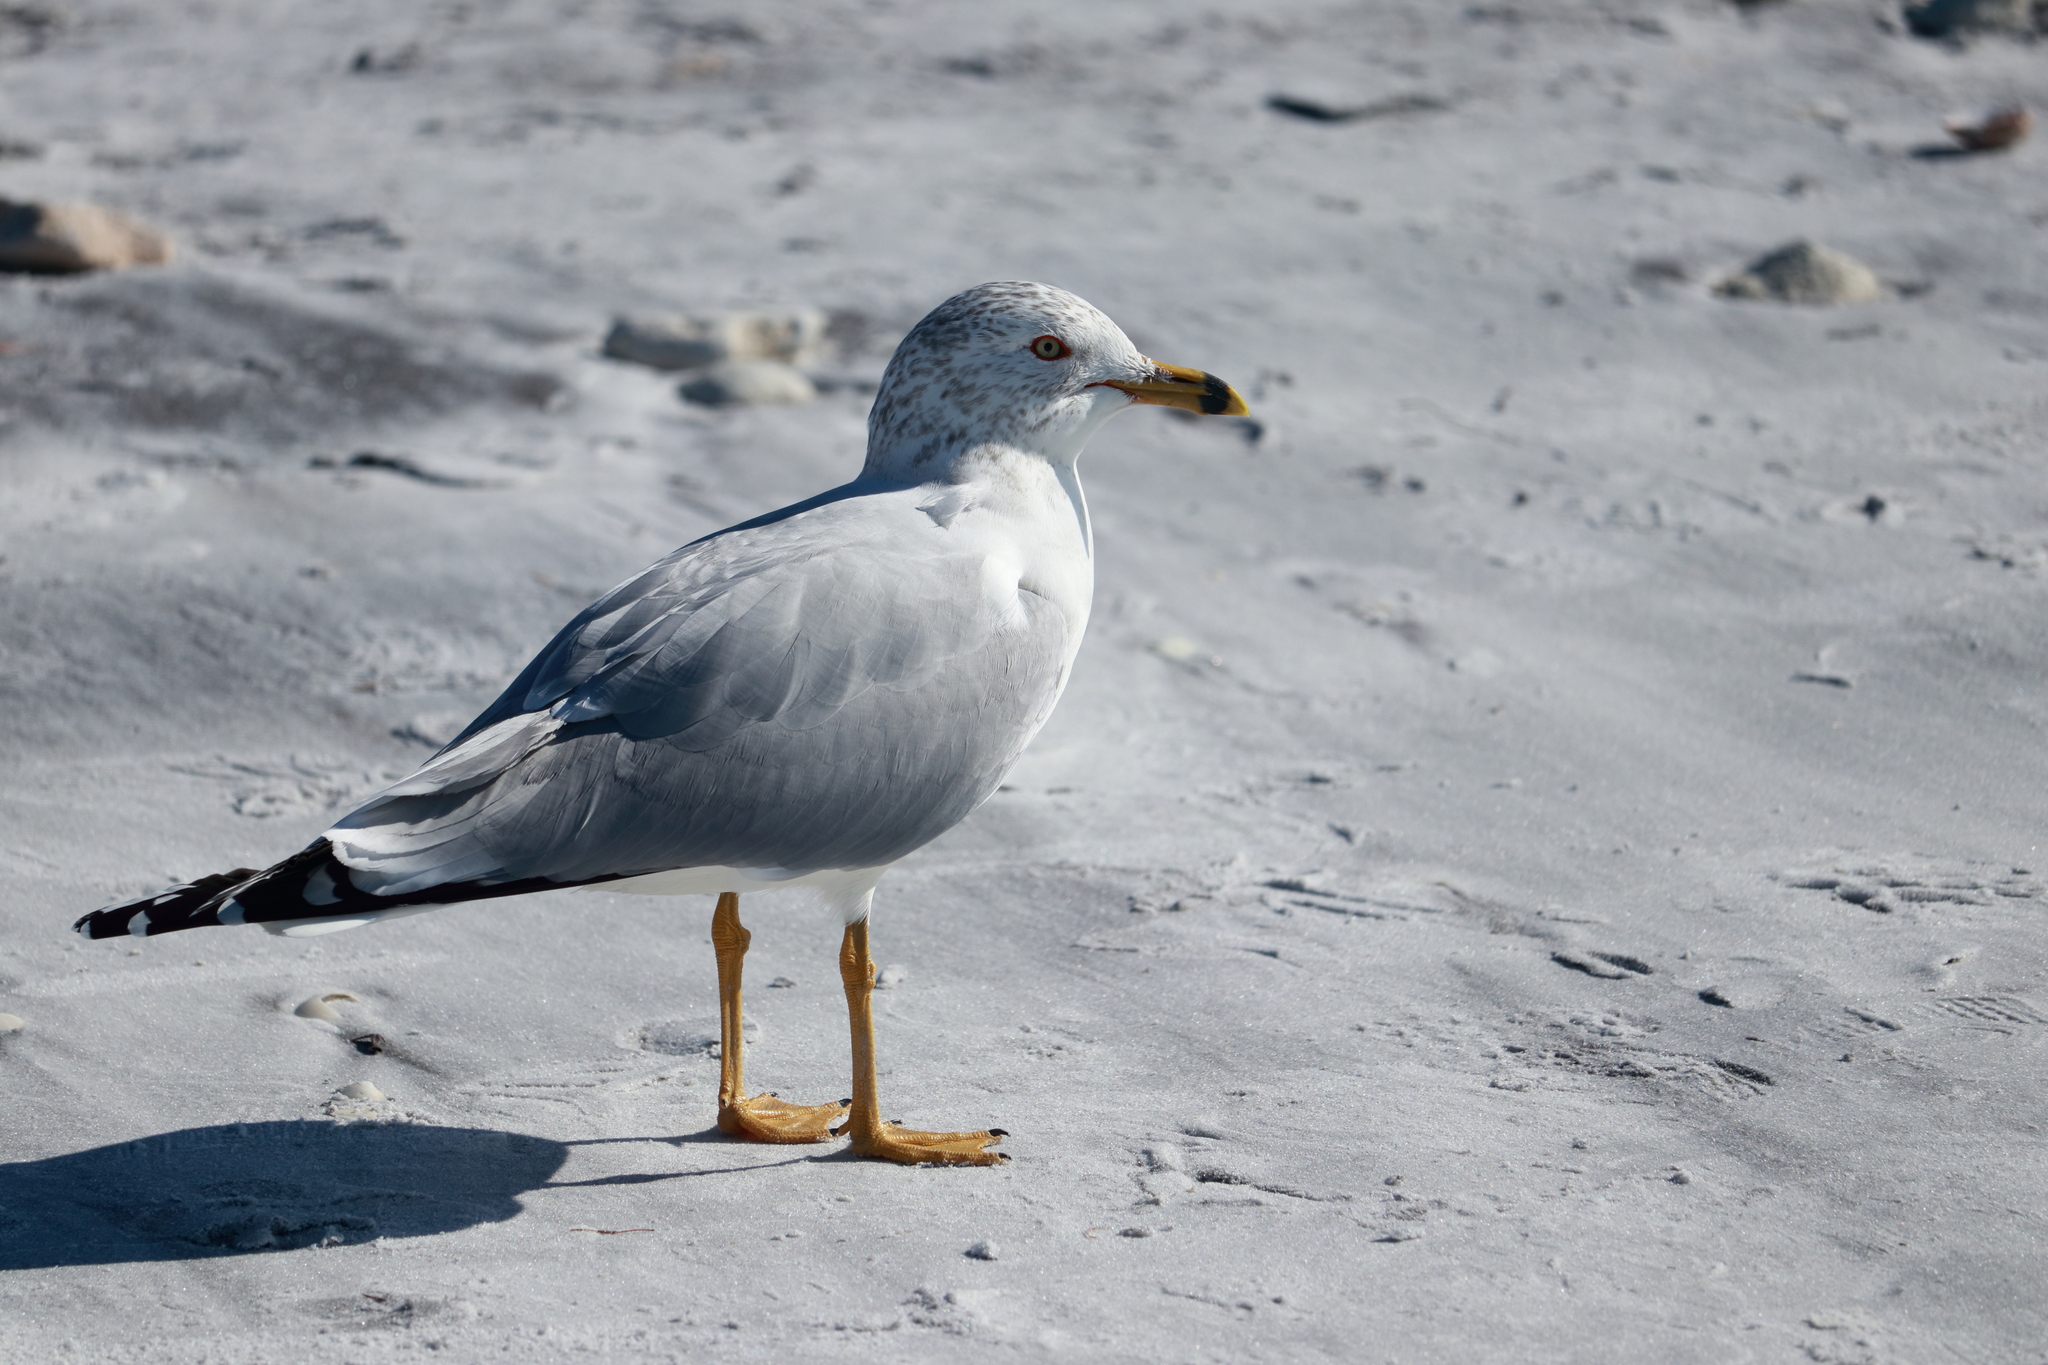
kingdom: Animalia
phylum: Chordata
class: Aves
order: Charadriiformes
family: Laridae
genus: Larus
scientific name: Larus delawarensis
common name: Ring-billed gull
